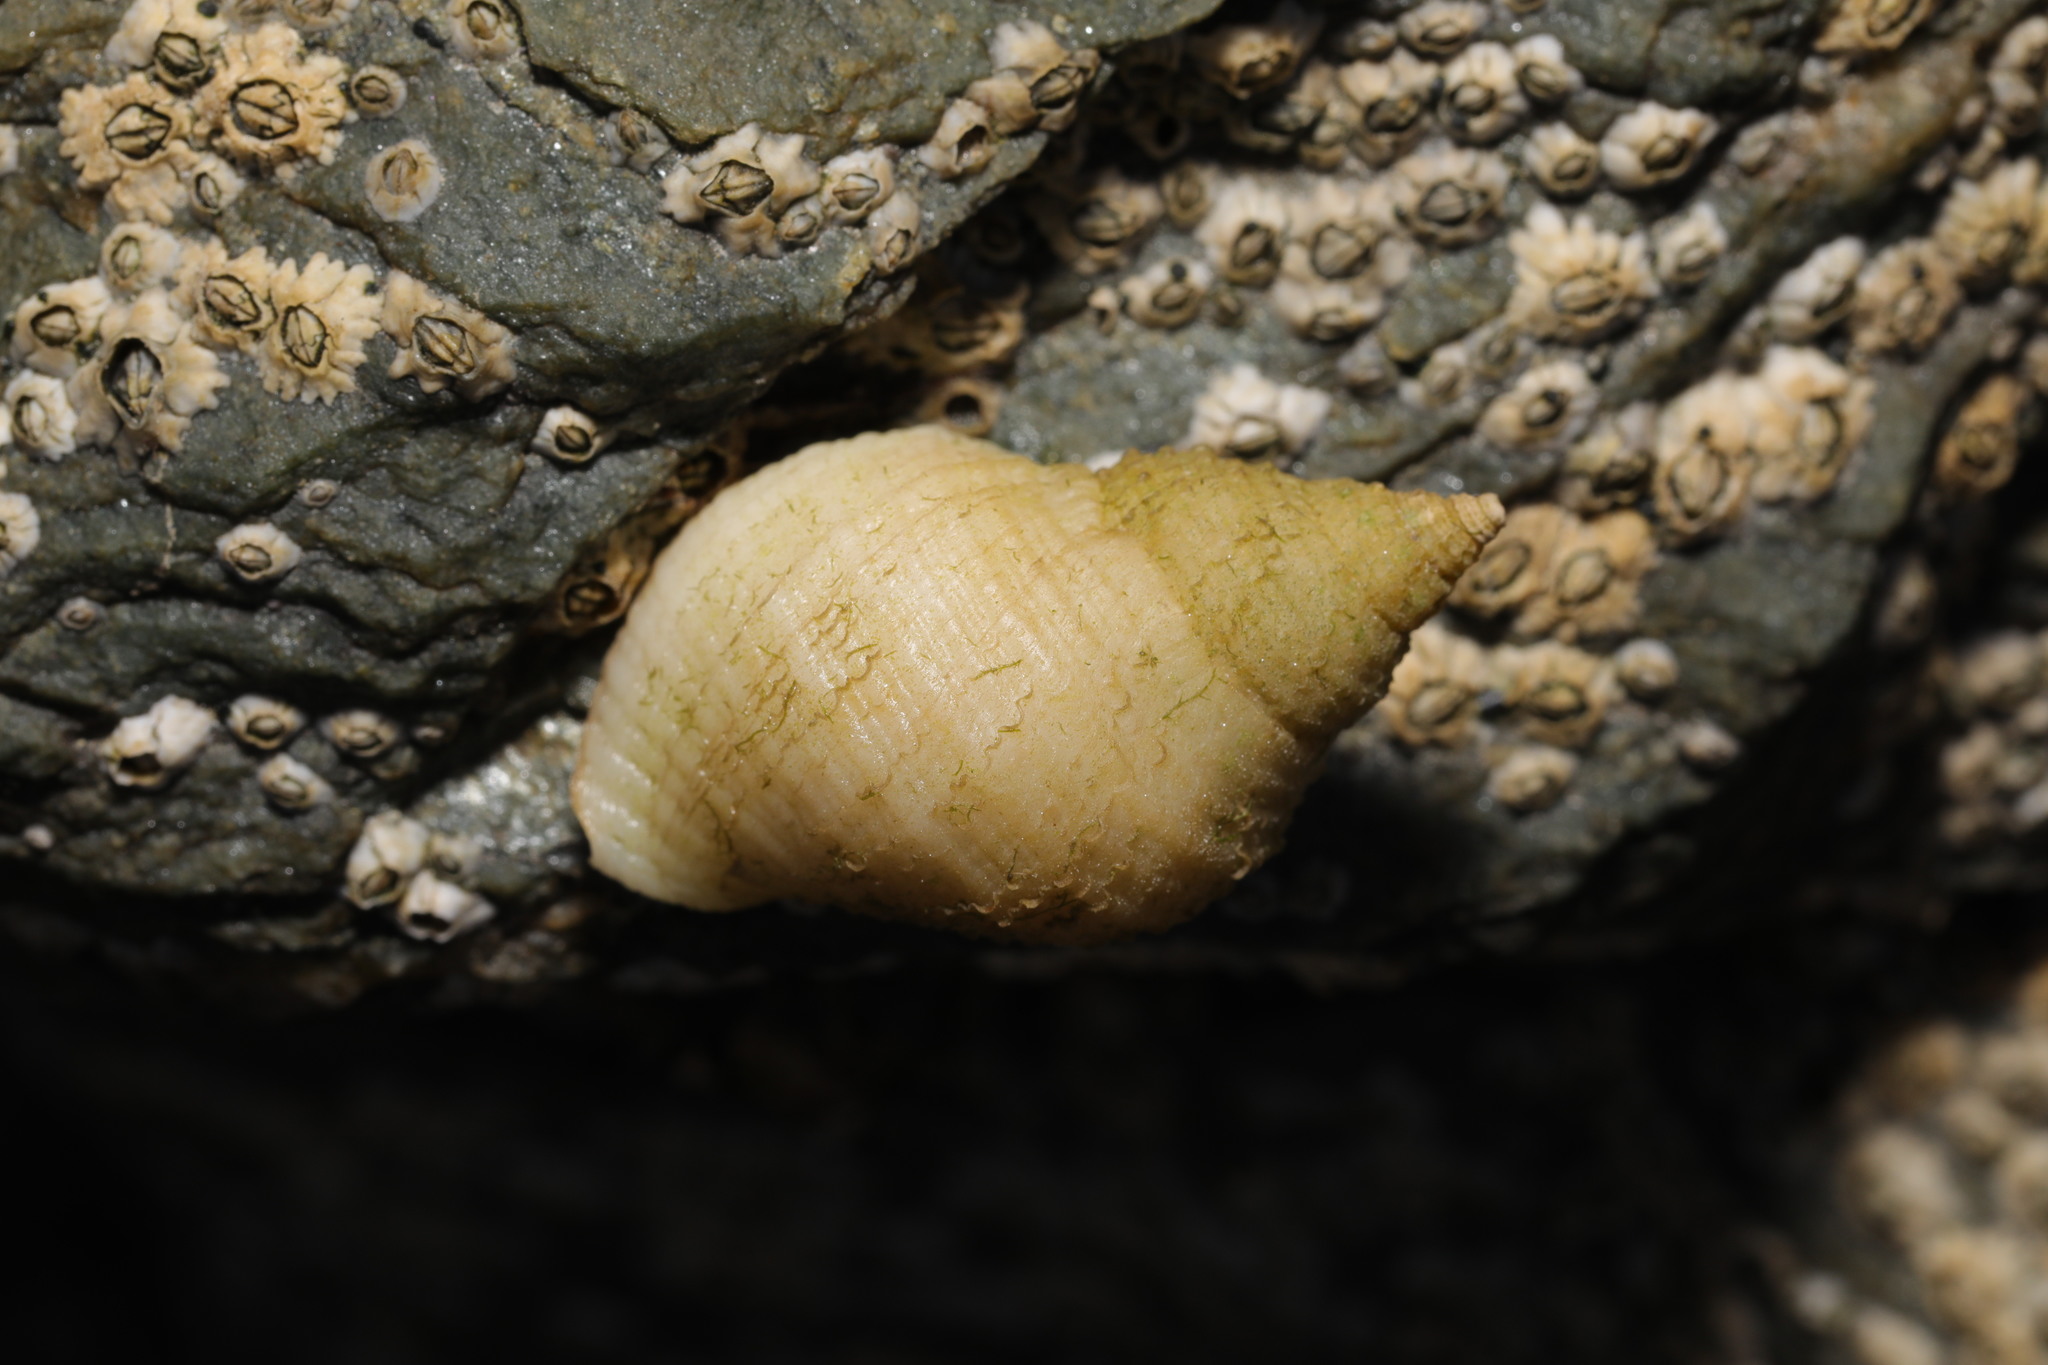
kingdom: Animalia
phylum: Mollusca
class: Gastropoda
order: Neogastropoda
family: Muricidae
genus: Nucella
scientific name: Nucella lapillus
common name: Dog whelk
